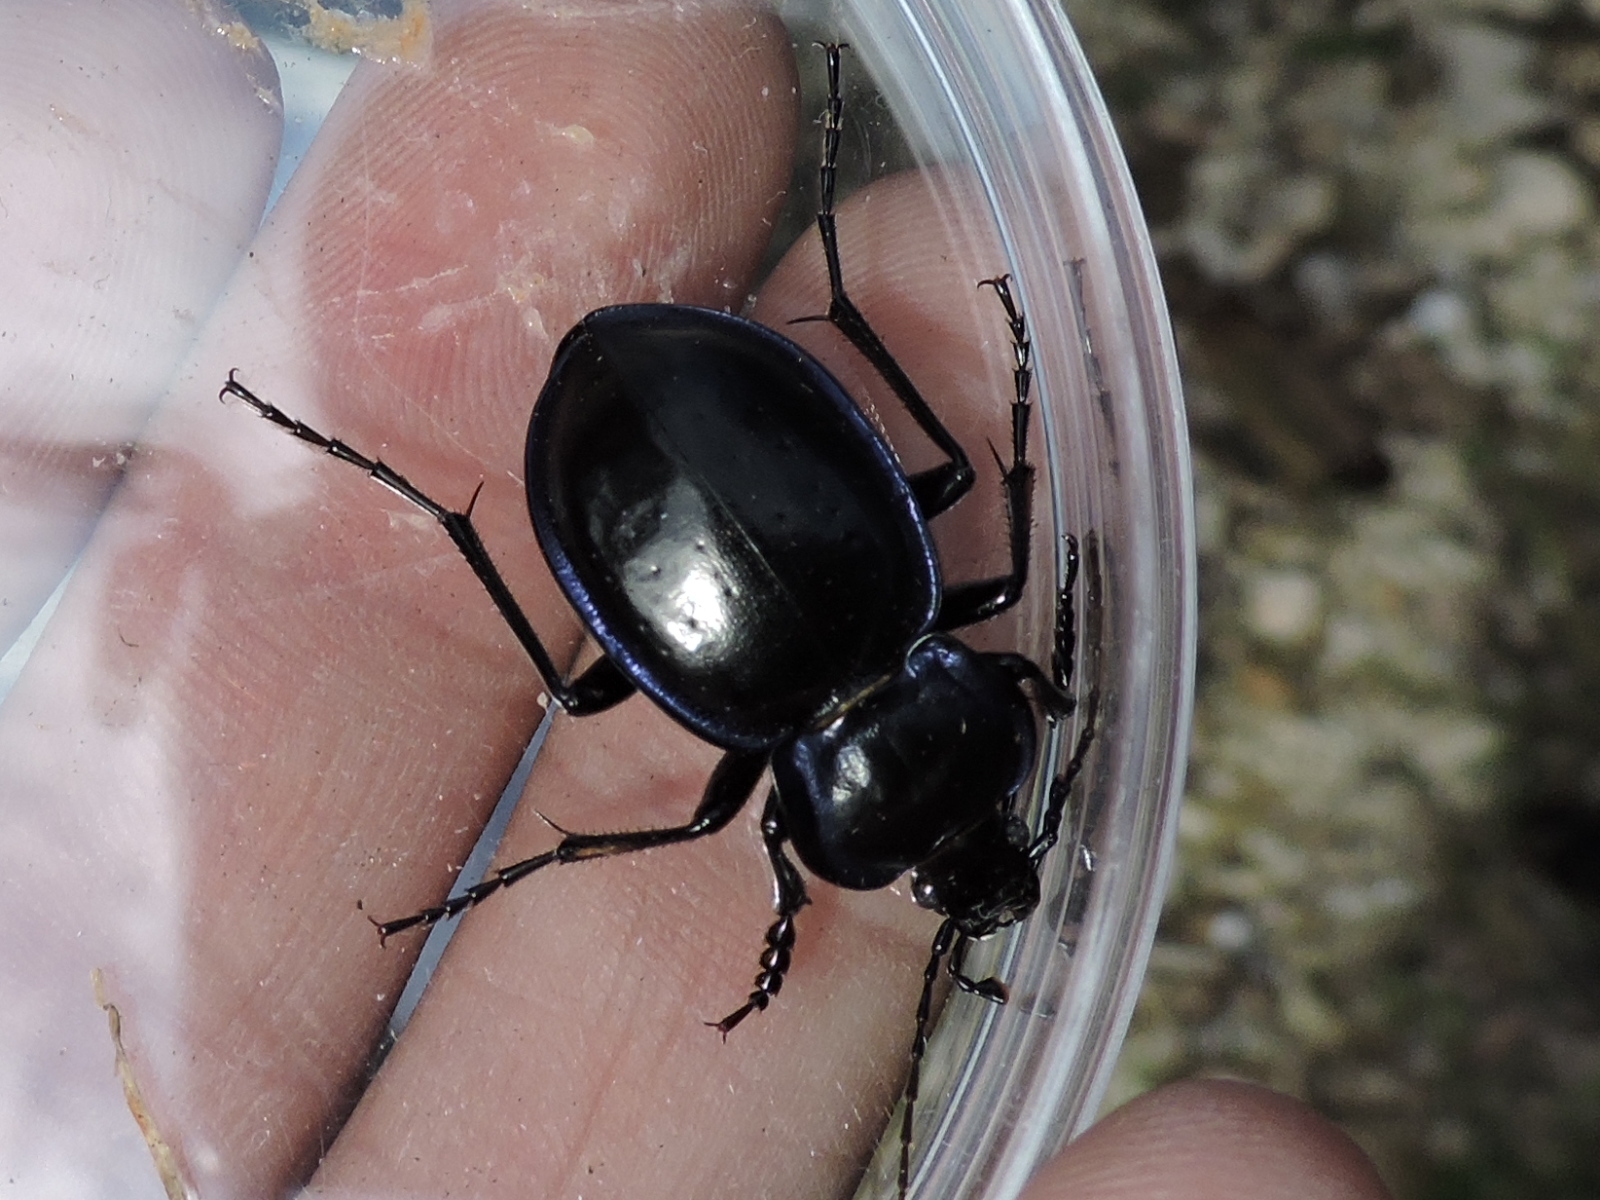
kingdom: Animalia
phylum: Arthropoda
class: Insecta
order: Coleoptera
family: Carabidae
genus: Carabus
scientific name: Carabus finitimus
